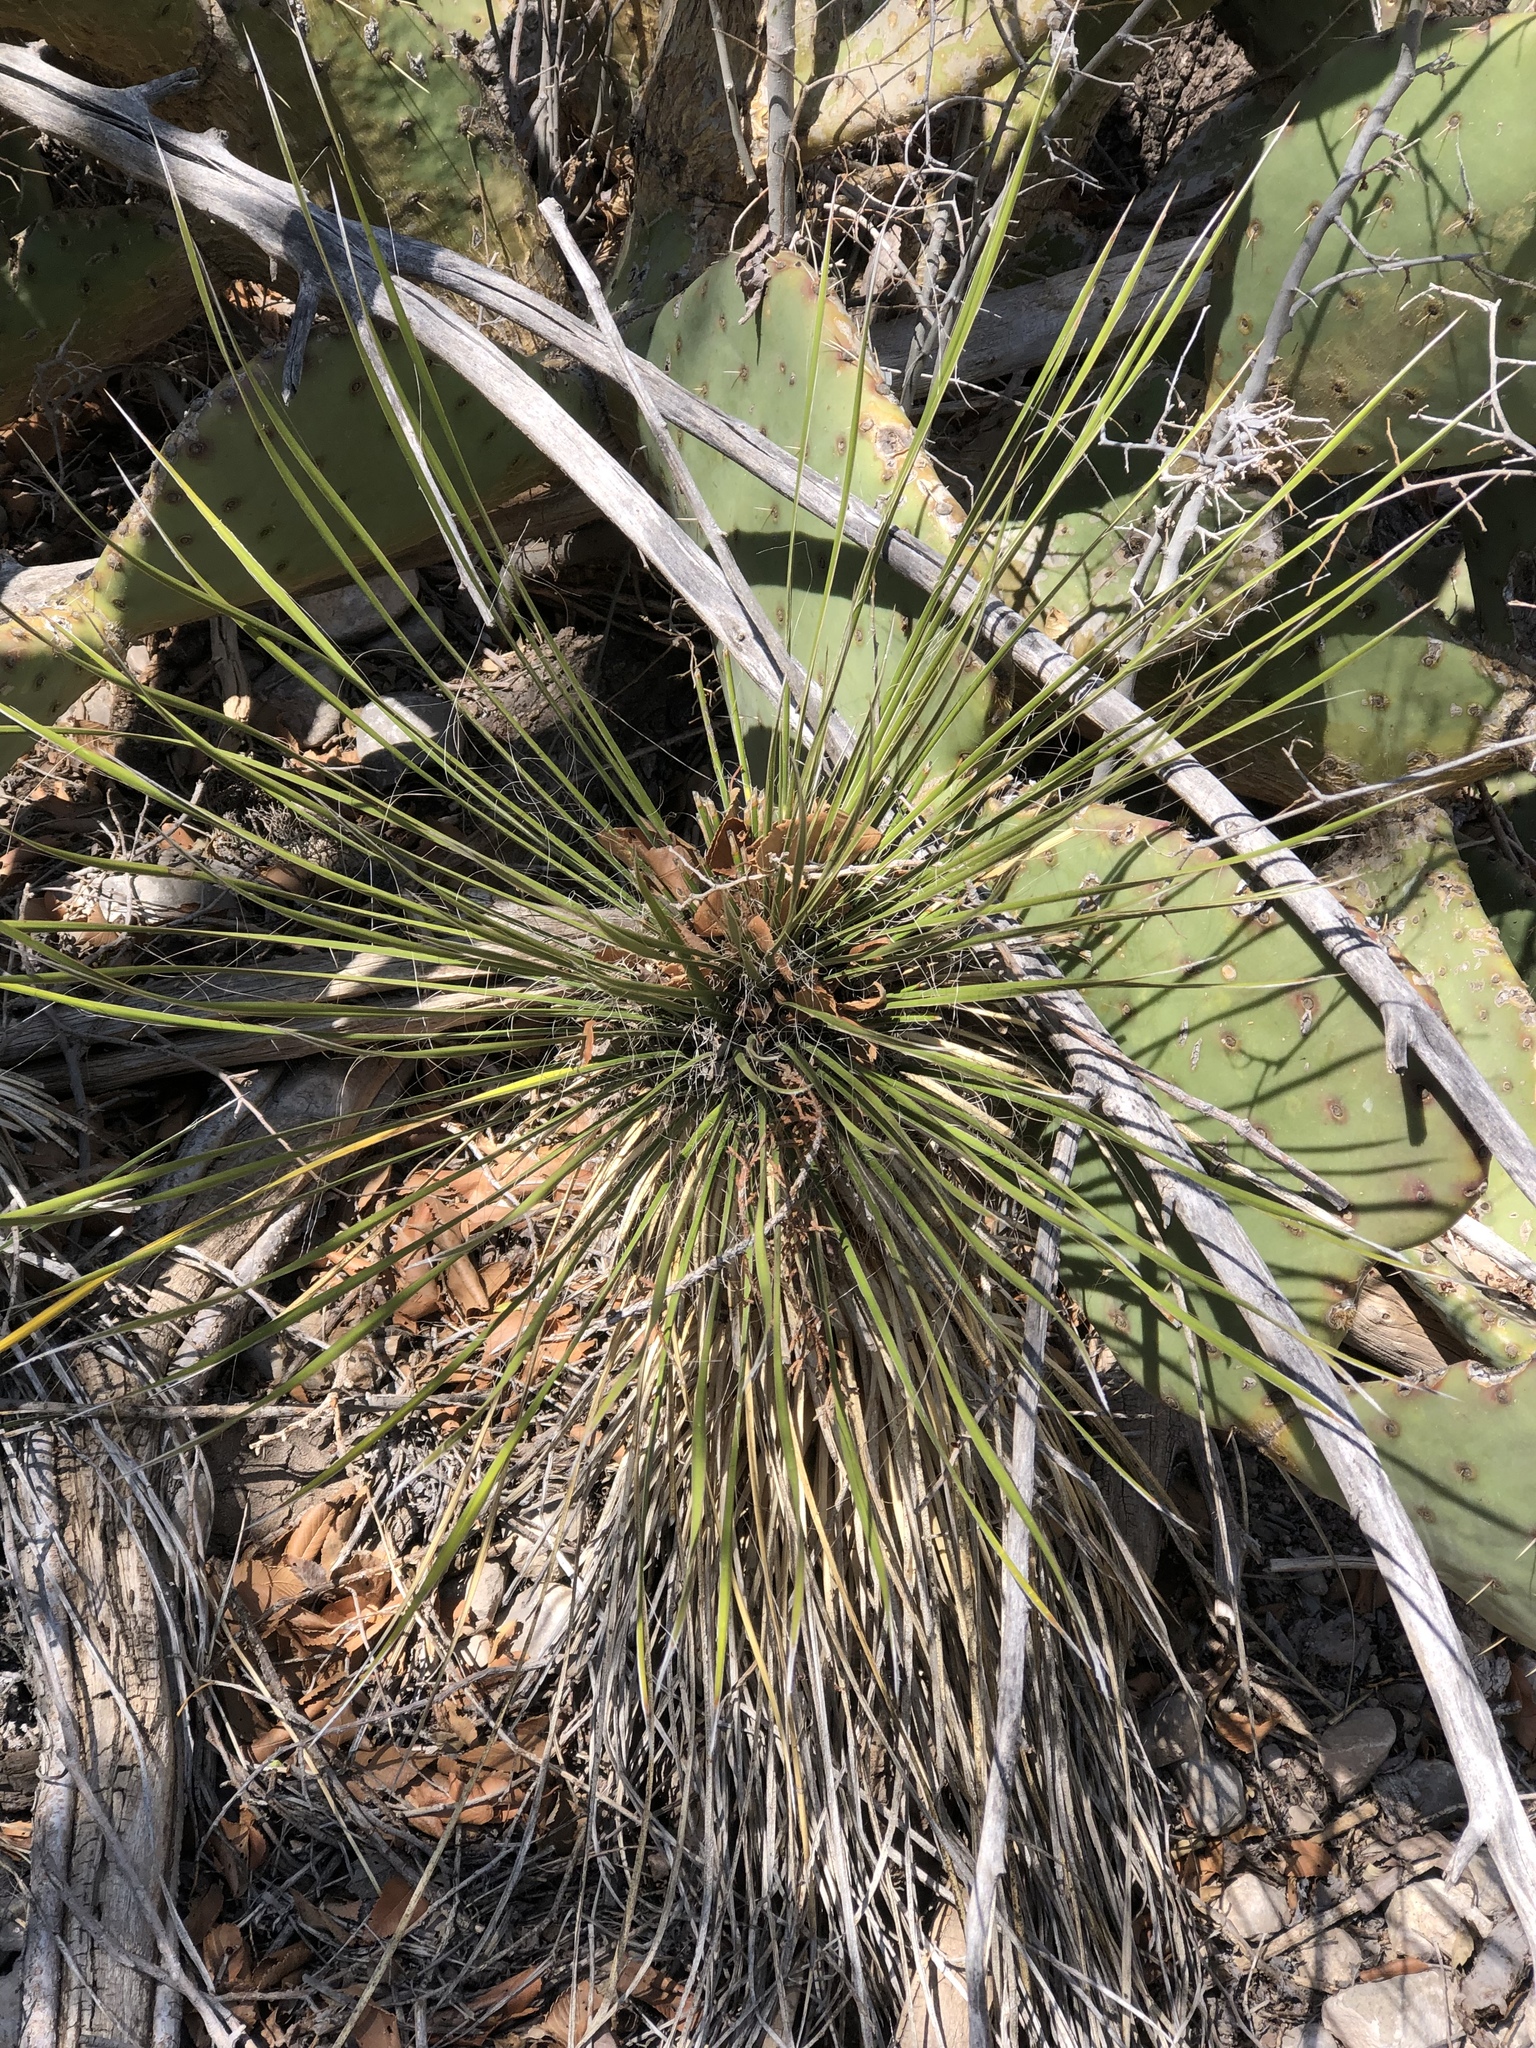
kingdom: Plantae
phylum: Tracheophyta
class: Liliopsida
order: Asparagales
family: Asparagaceae
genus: Yucca
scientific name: Yucca elata
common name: Palmella
